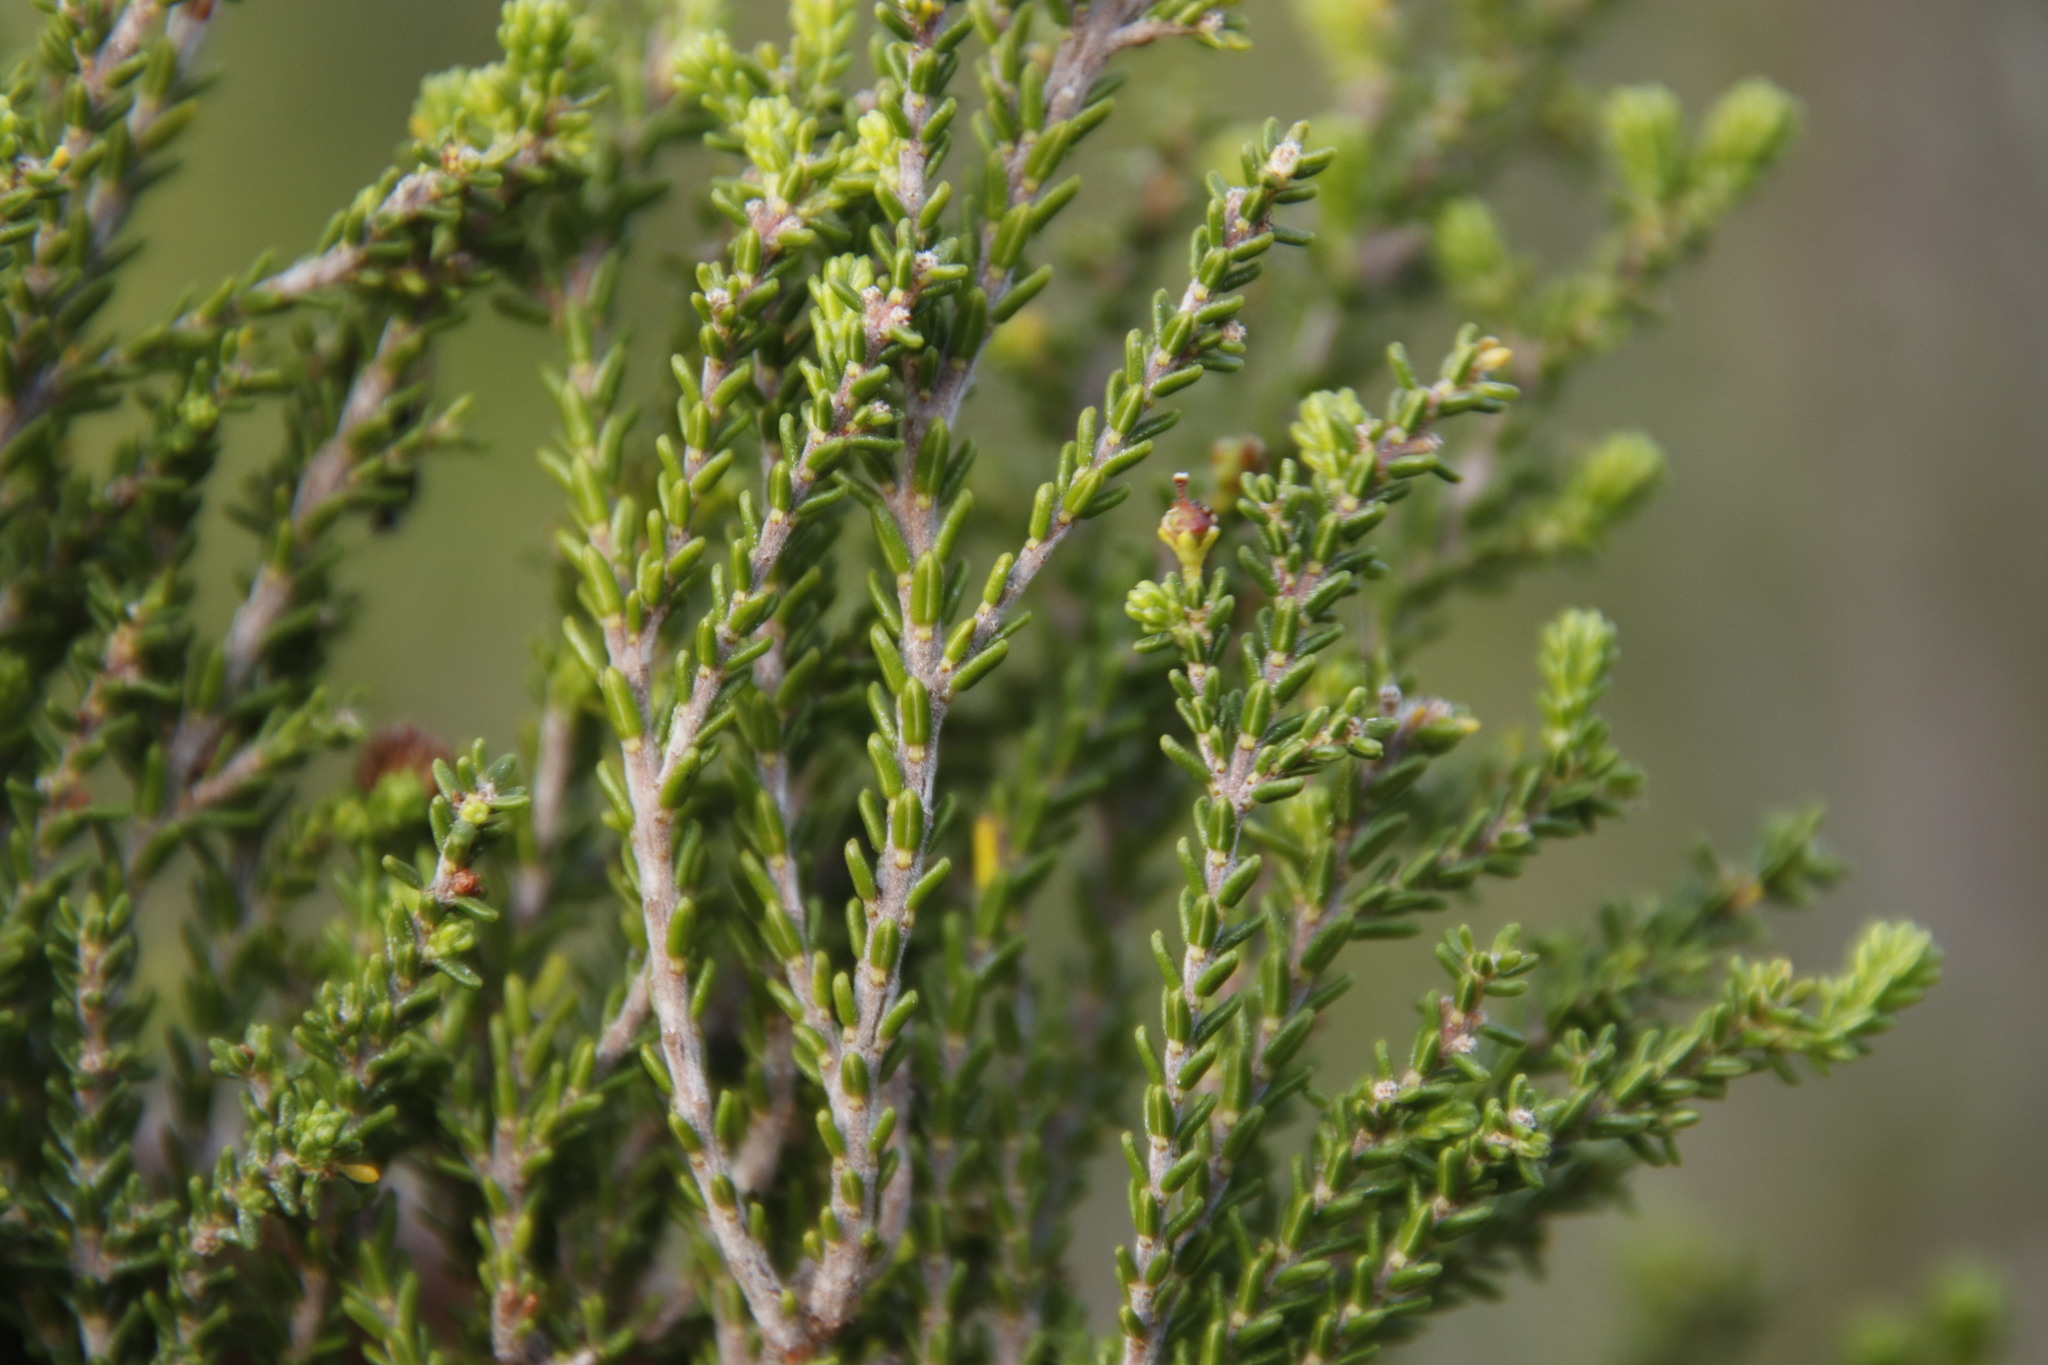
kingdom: Plantae
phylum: Tracheophyta
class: Magnoliopsida
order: Ericales
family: Ericaceae
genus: Erica
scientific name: Erica tristis
